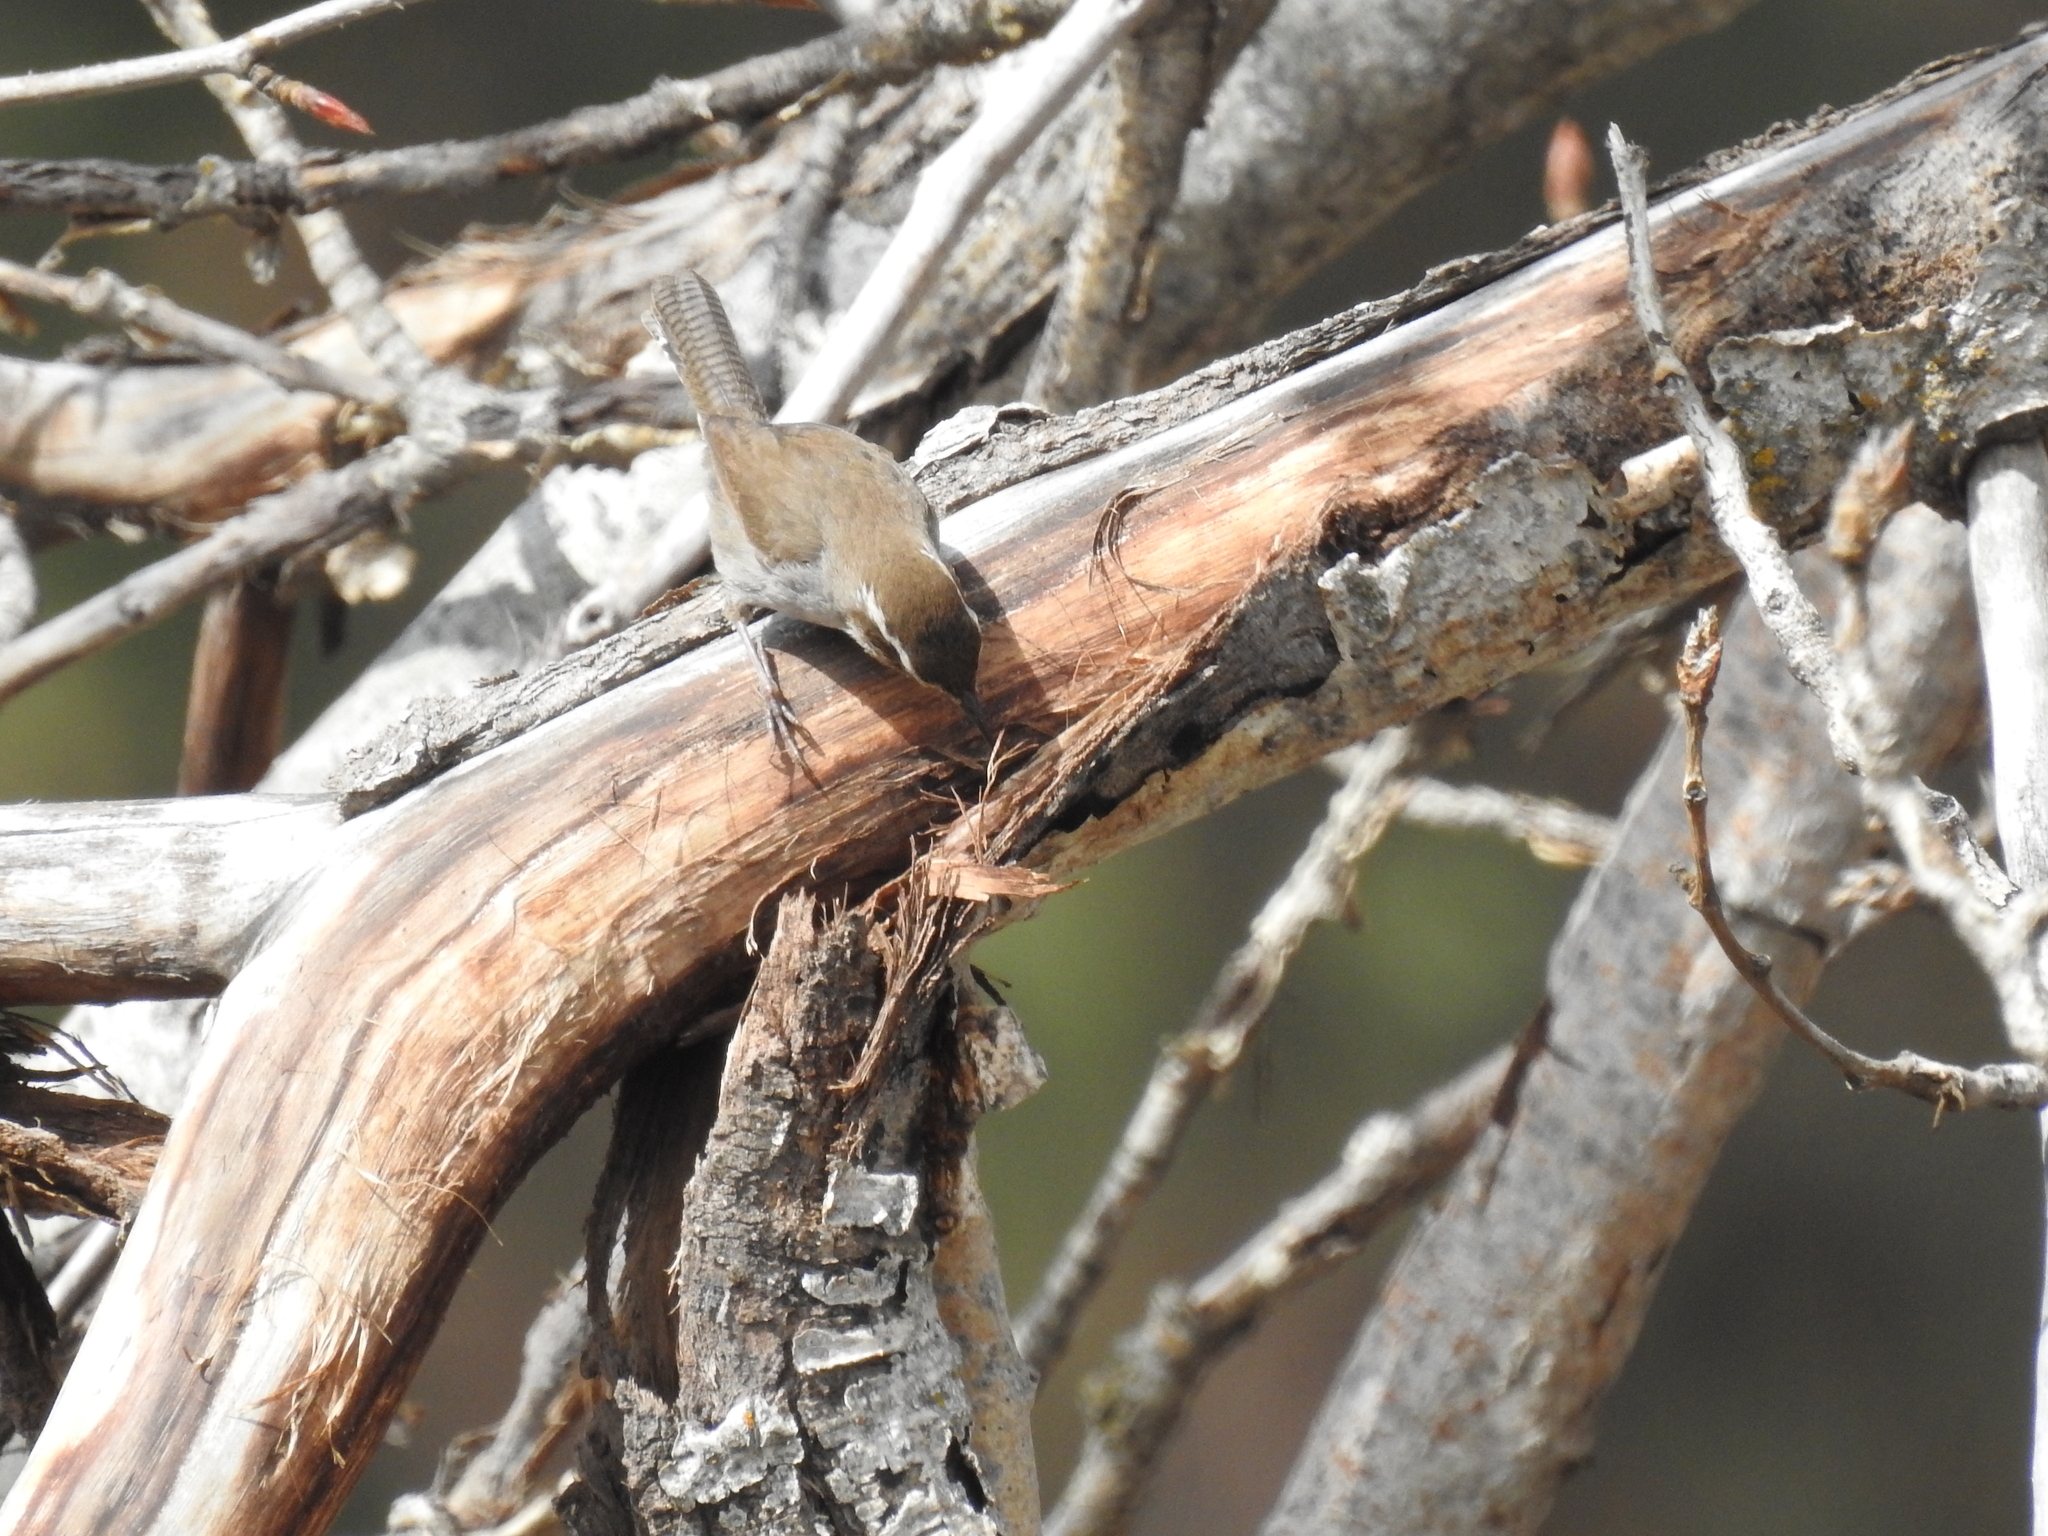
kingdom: Animalia
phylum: Chordata
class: Aves
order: Passeriformes
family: Troglodytidae
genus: Thryomanes
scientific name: Thryomanes bewickii
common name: Bewick's wren
